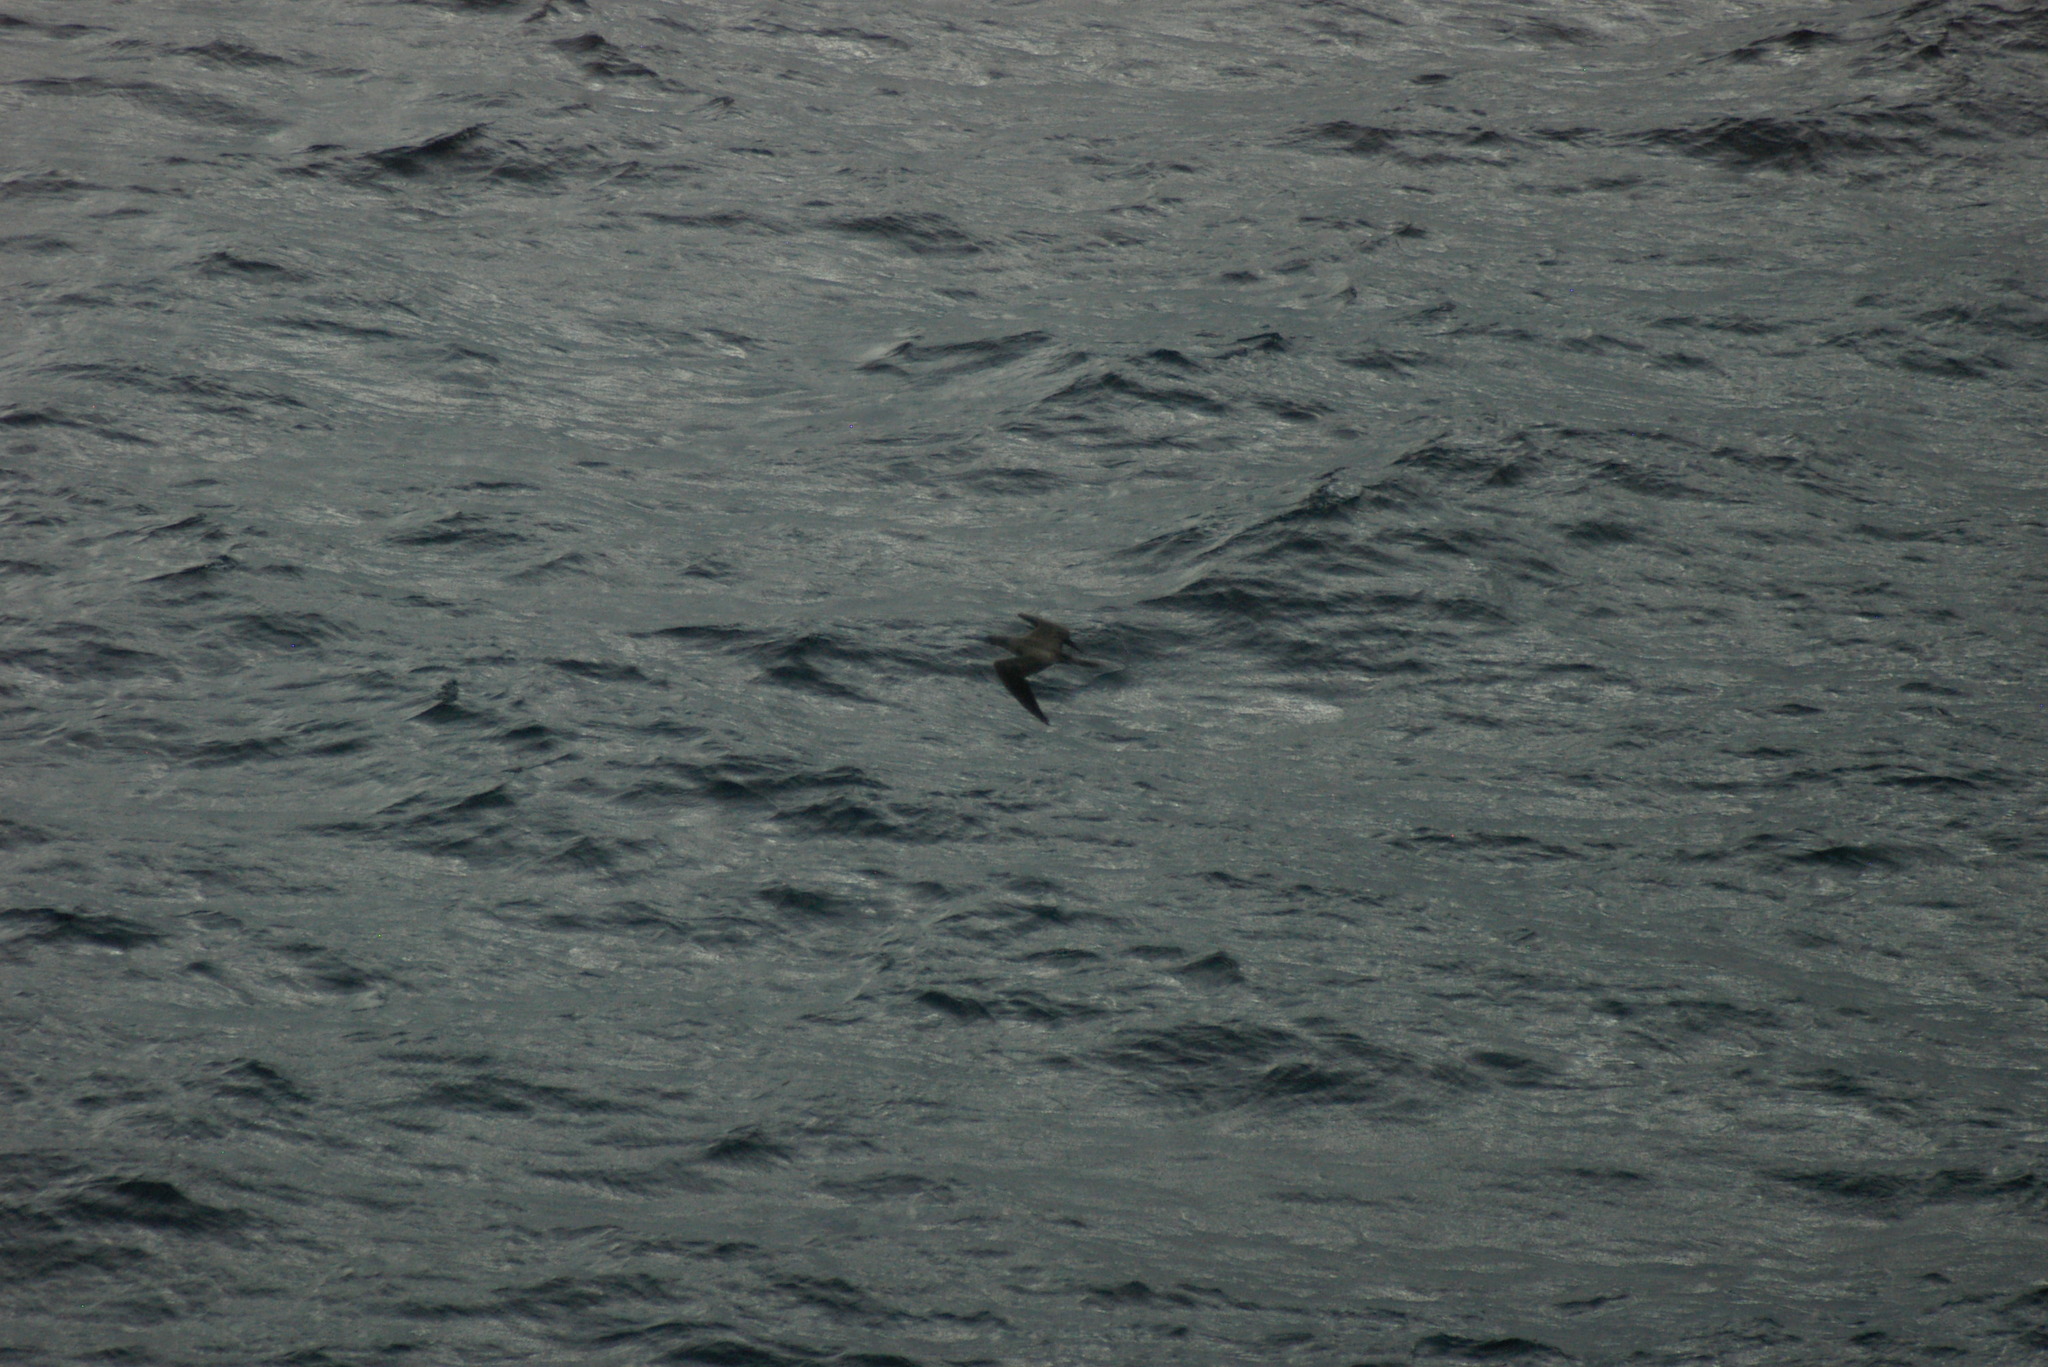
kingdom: Animalia
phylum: Chordata
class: Aves
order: Suliformes
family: Sulidae
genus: Sula
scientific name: Sula leucogaster
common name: Brown booby
